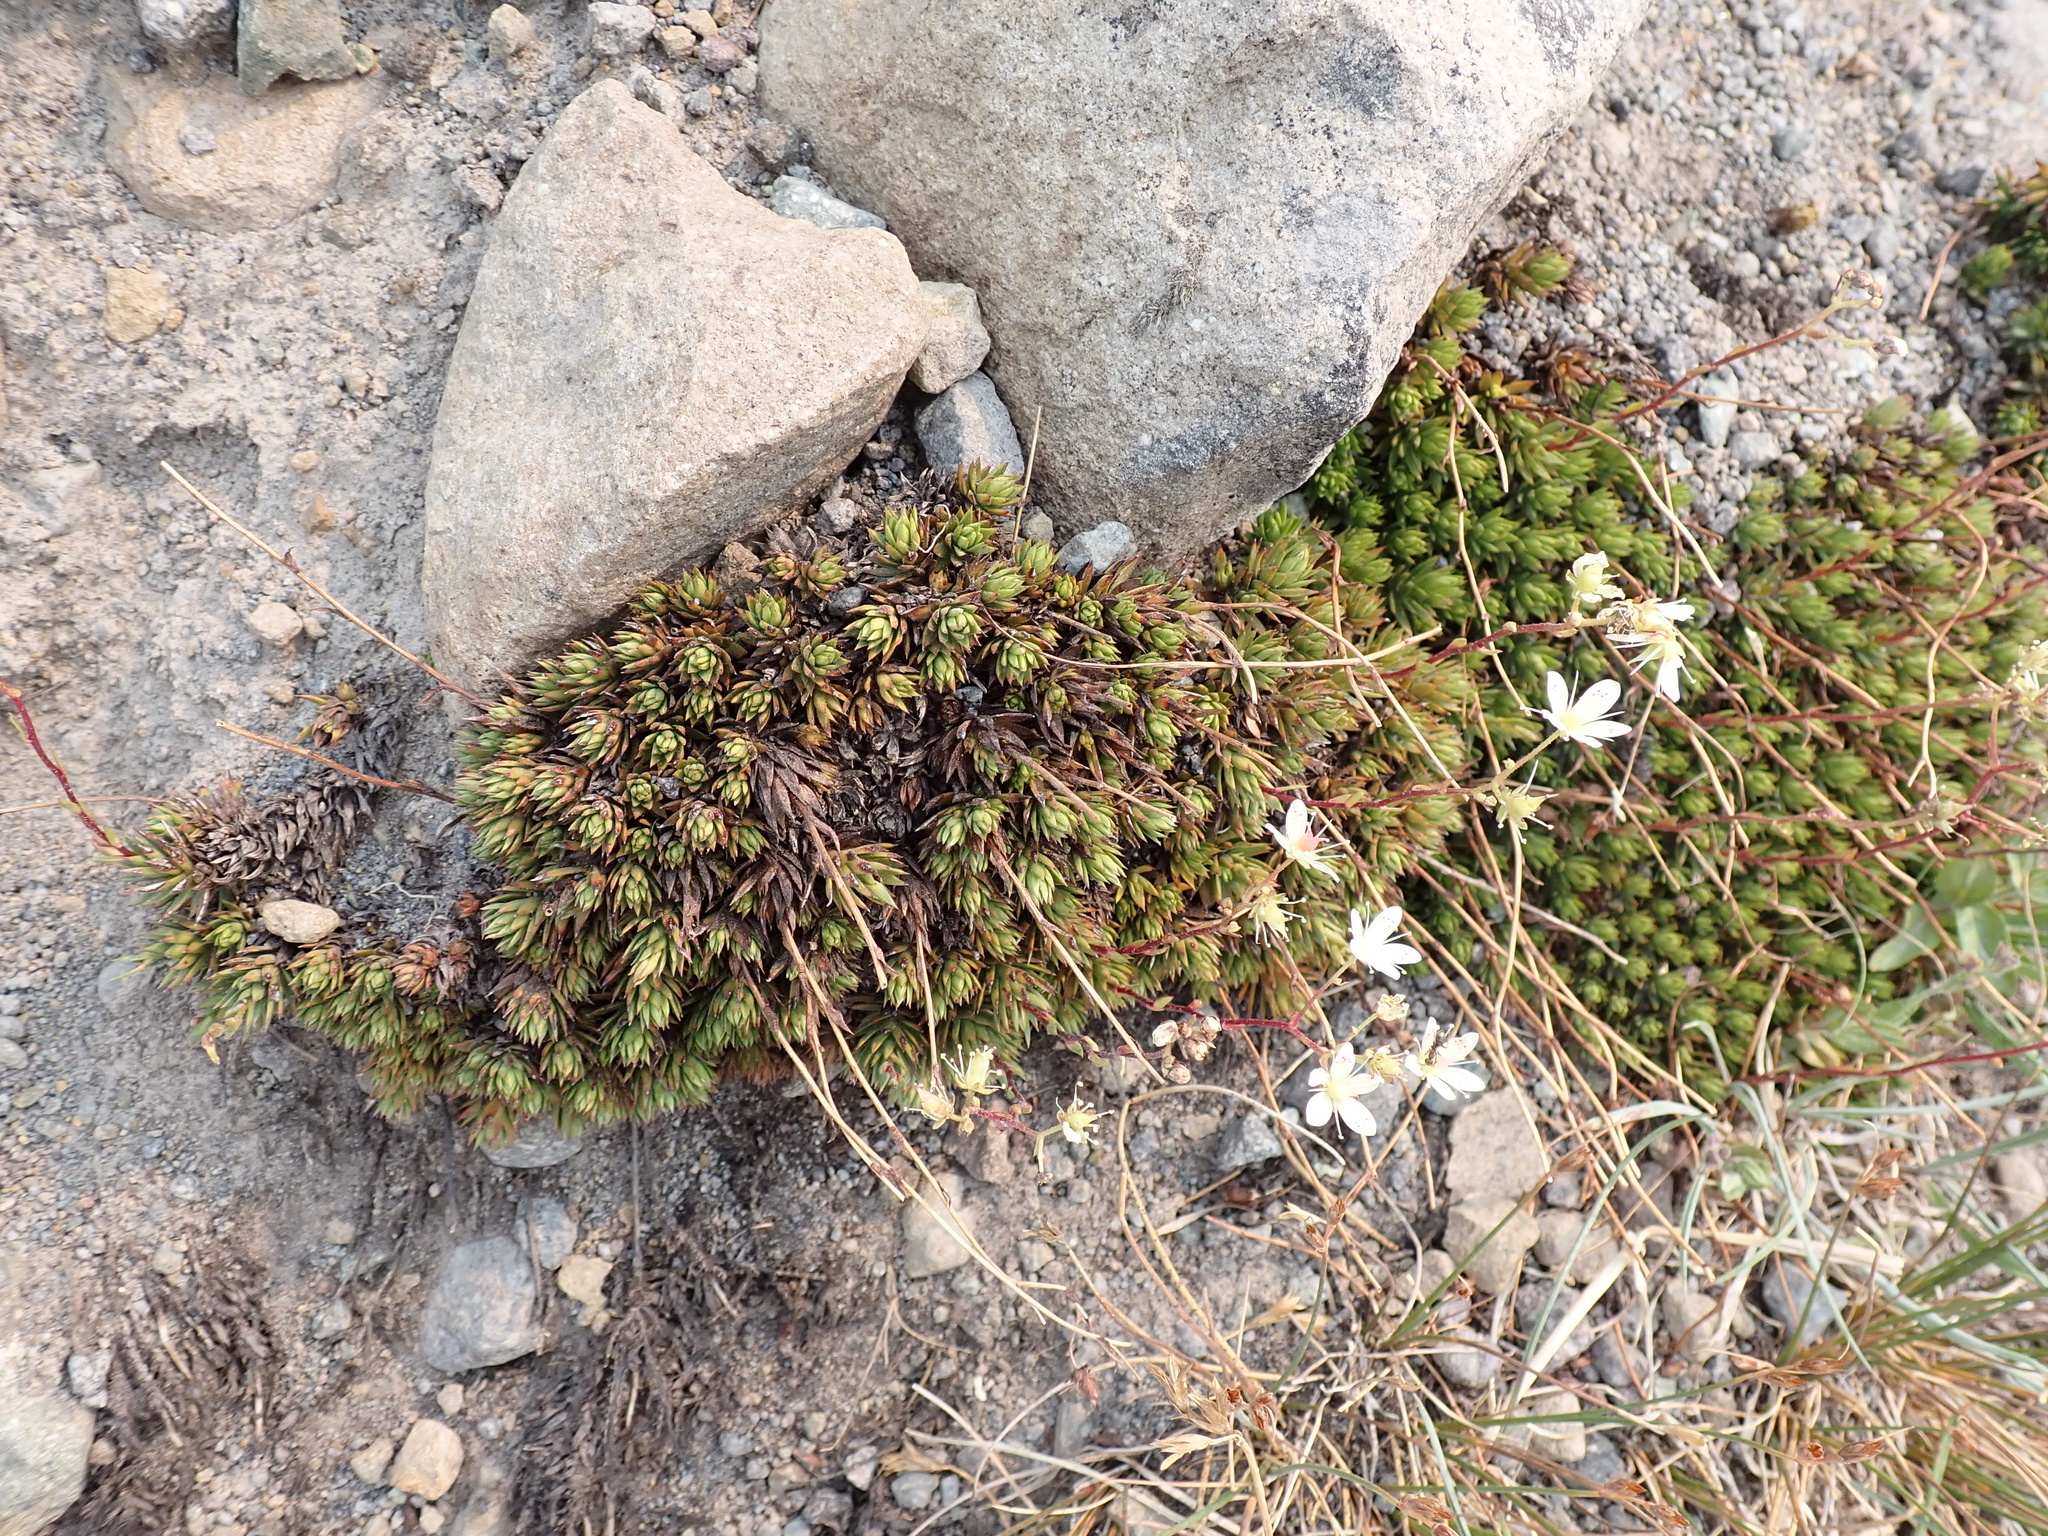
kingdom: Plantae
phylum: Tracheophyta
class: Magnoliopsida
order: Saxifragales
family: Saxifragaceae
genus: Saxifraga
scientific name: Saxifraga bronchialis
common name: Matted saxifrage
